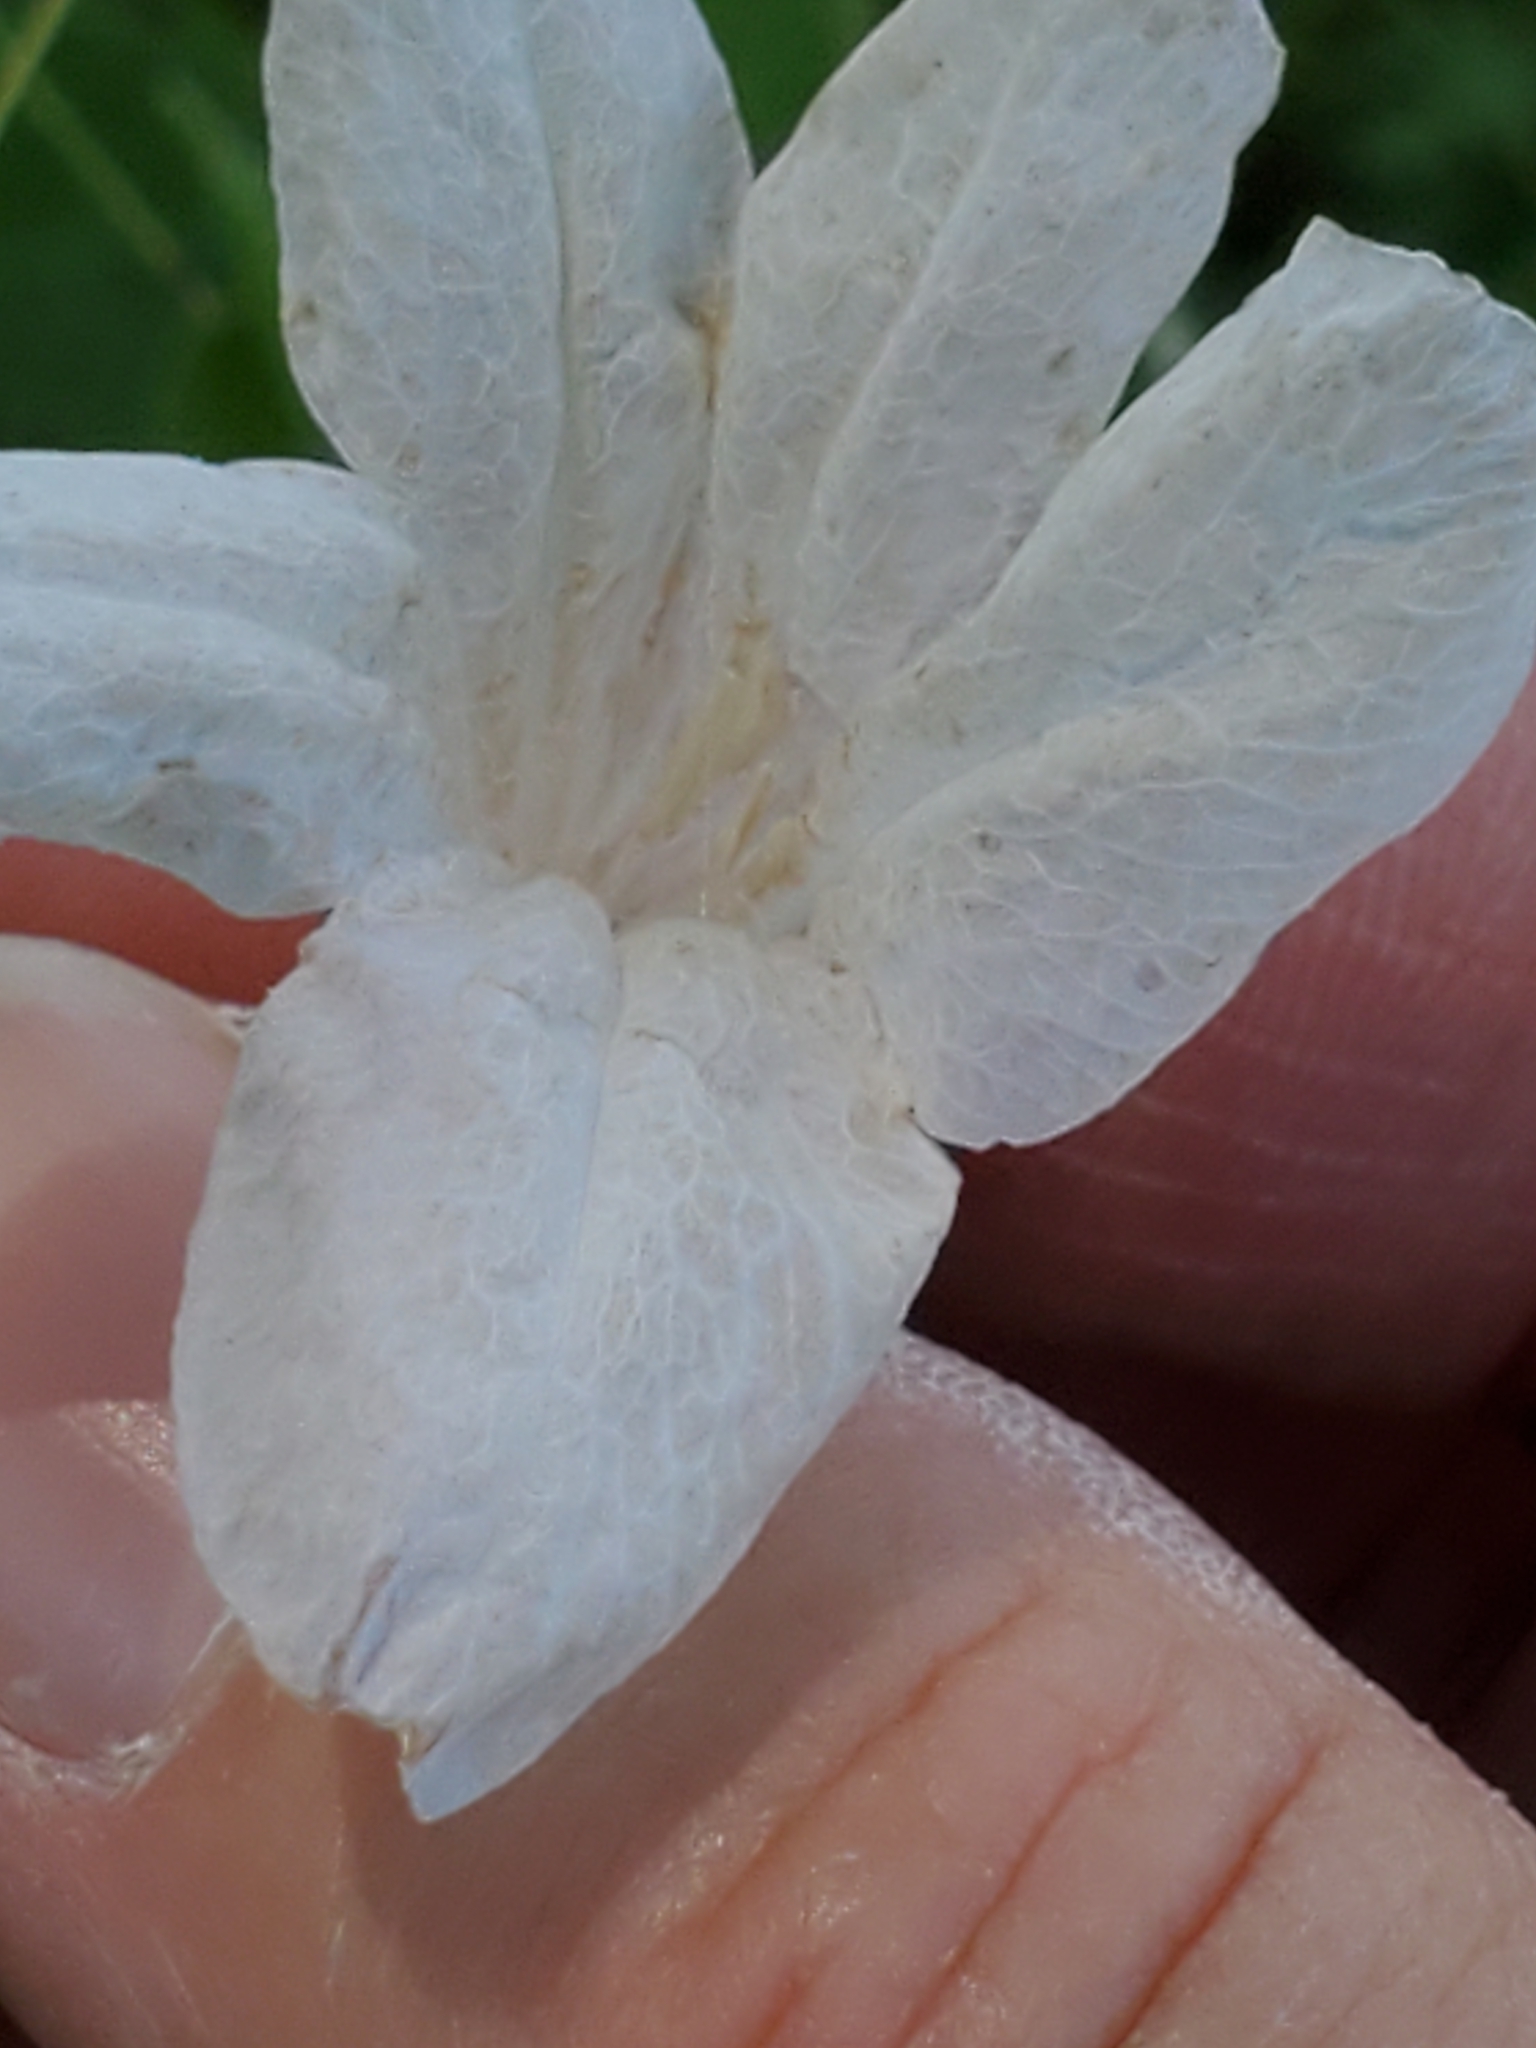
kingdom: Plantae
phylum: Tracheophyta
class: Magnoliopsida
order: Lamiales
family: Acanthaceae
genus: Ruellia
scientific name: Ruellia metziae
